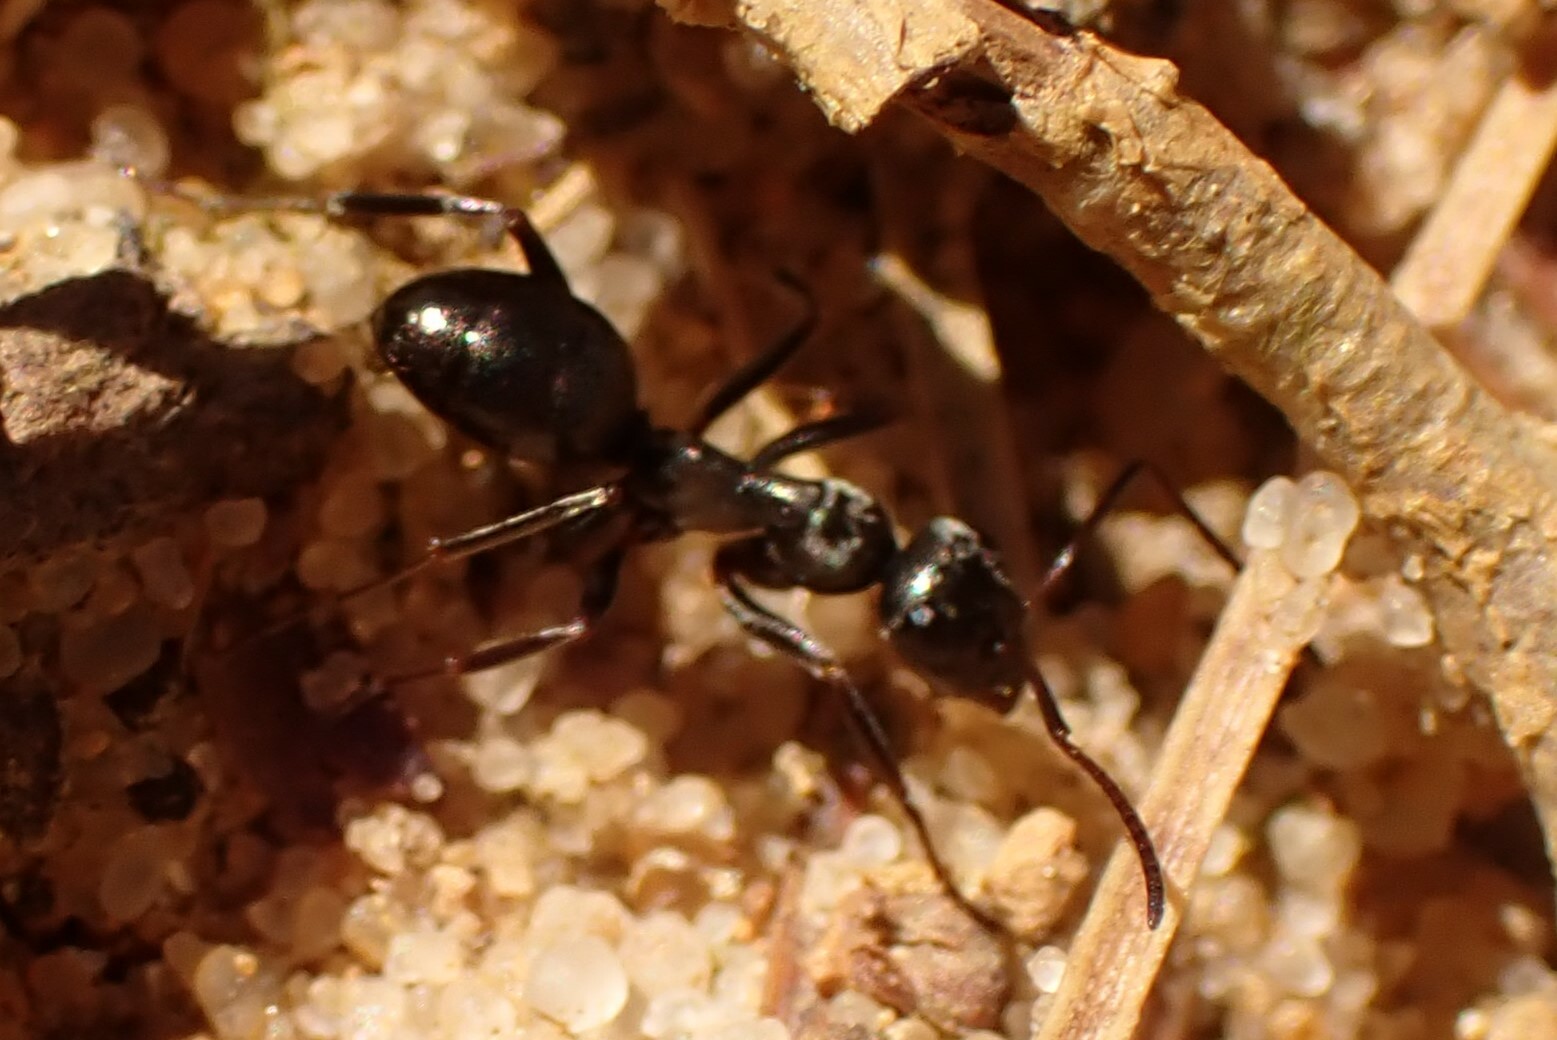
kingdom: Animalia
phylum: Arthropoda
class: Insecta
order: Hymenoptera
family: Formicidae
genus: Formica
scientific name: Formica
